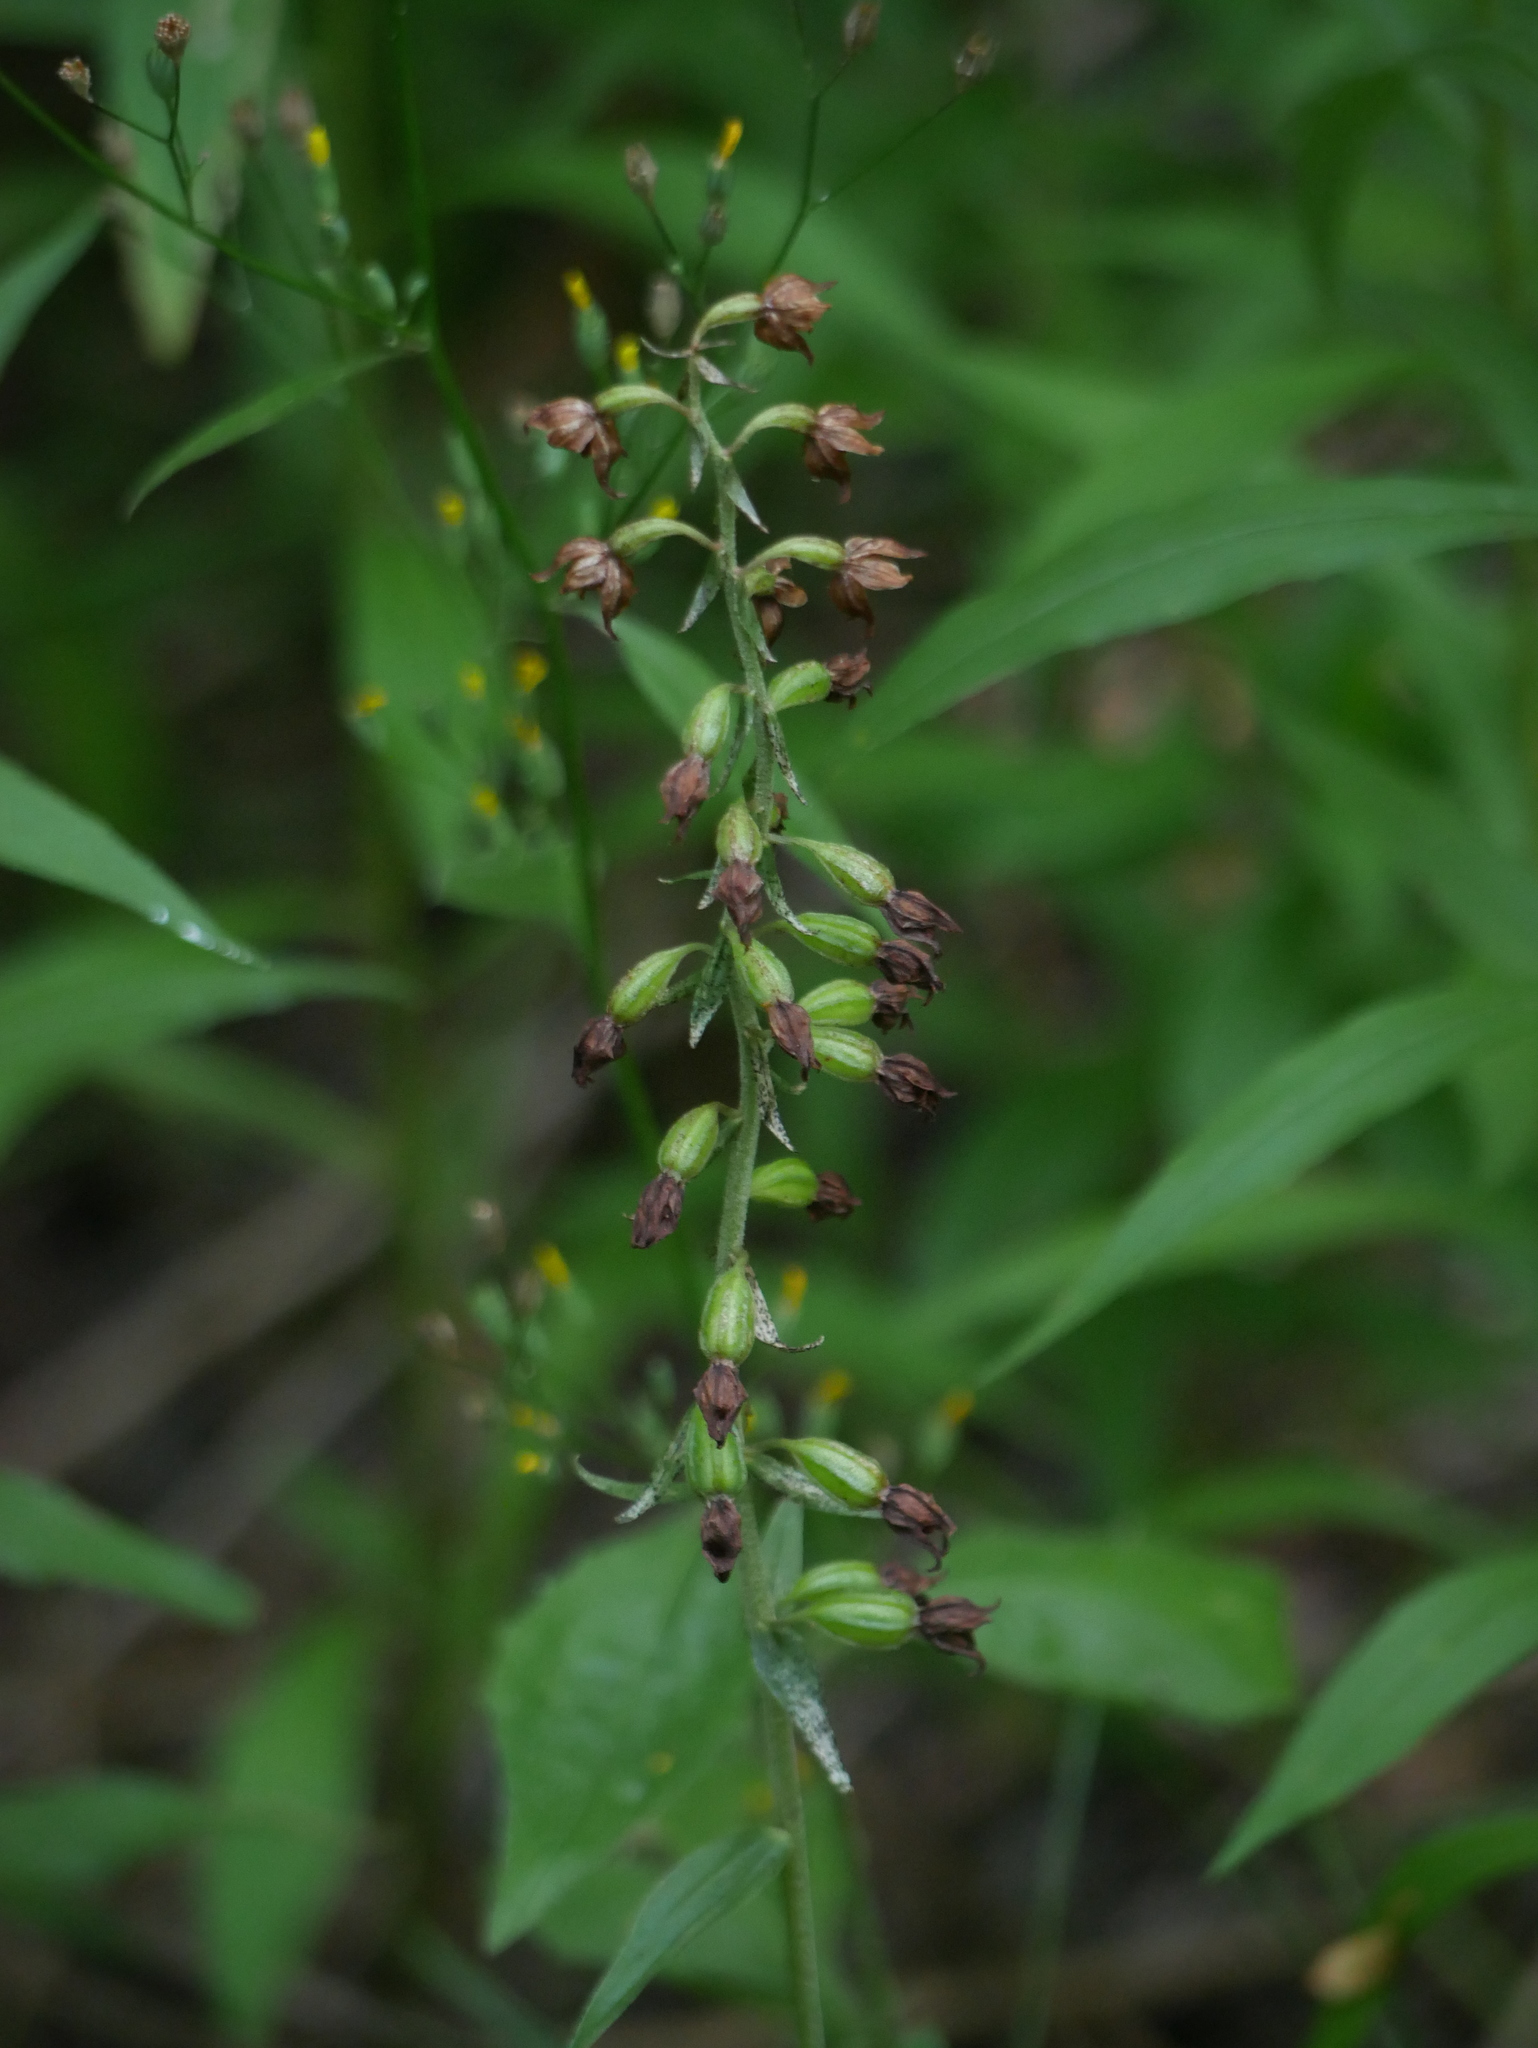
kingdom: Plantae
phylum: Tracheophyta
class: Liliopsida
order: Asparagales
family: Orchidaceae
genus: Epipactis
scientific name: Epipactis helleborine
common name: Broad-leaved helleborine
